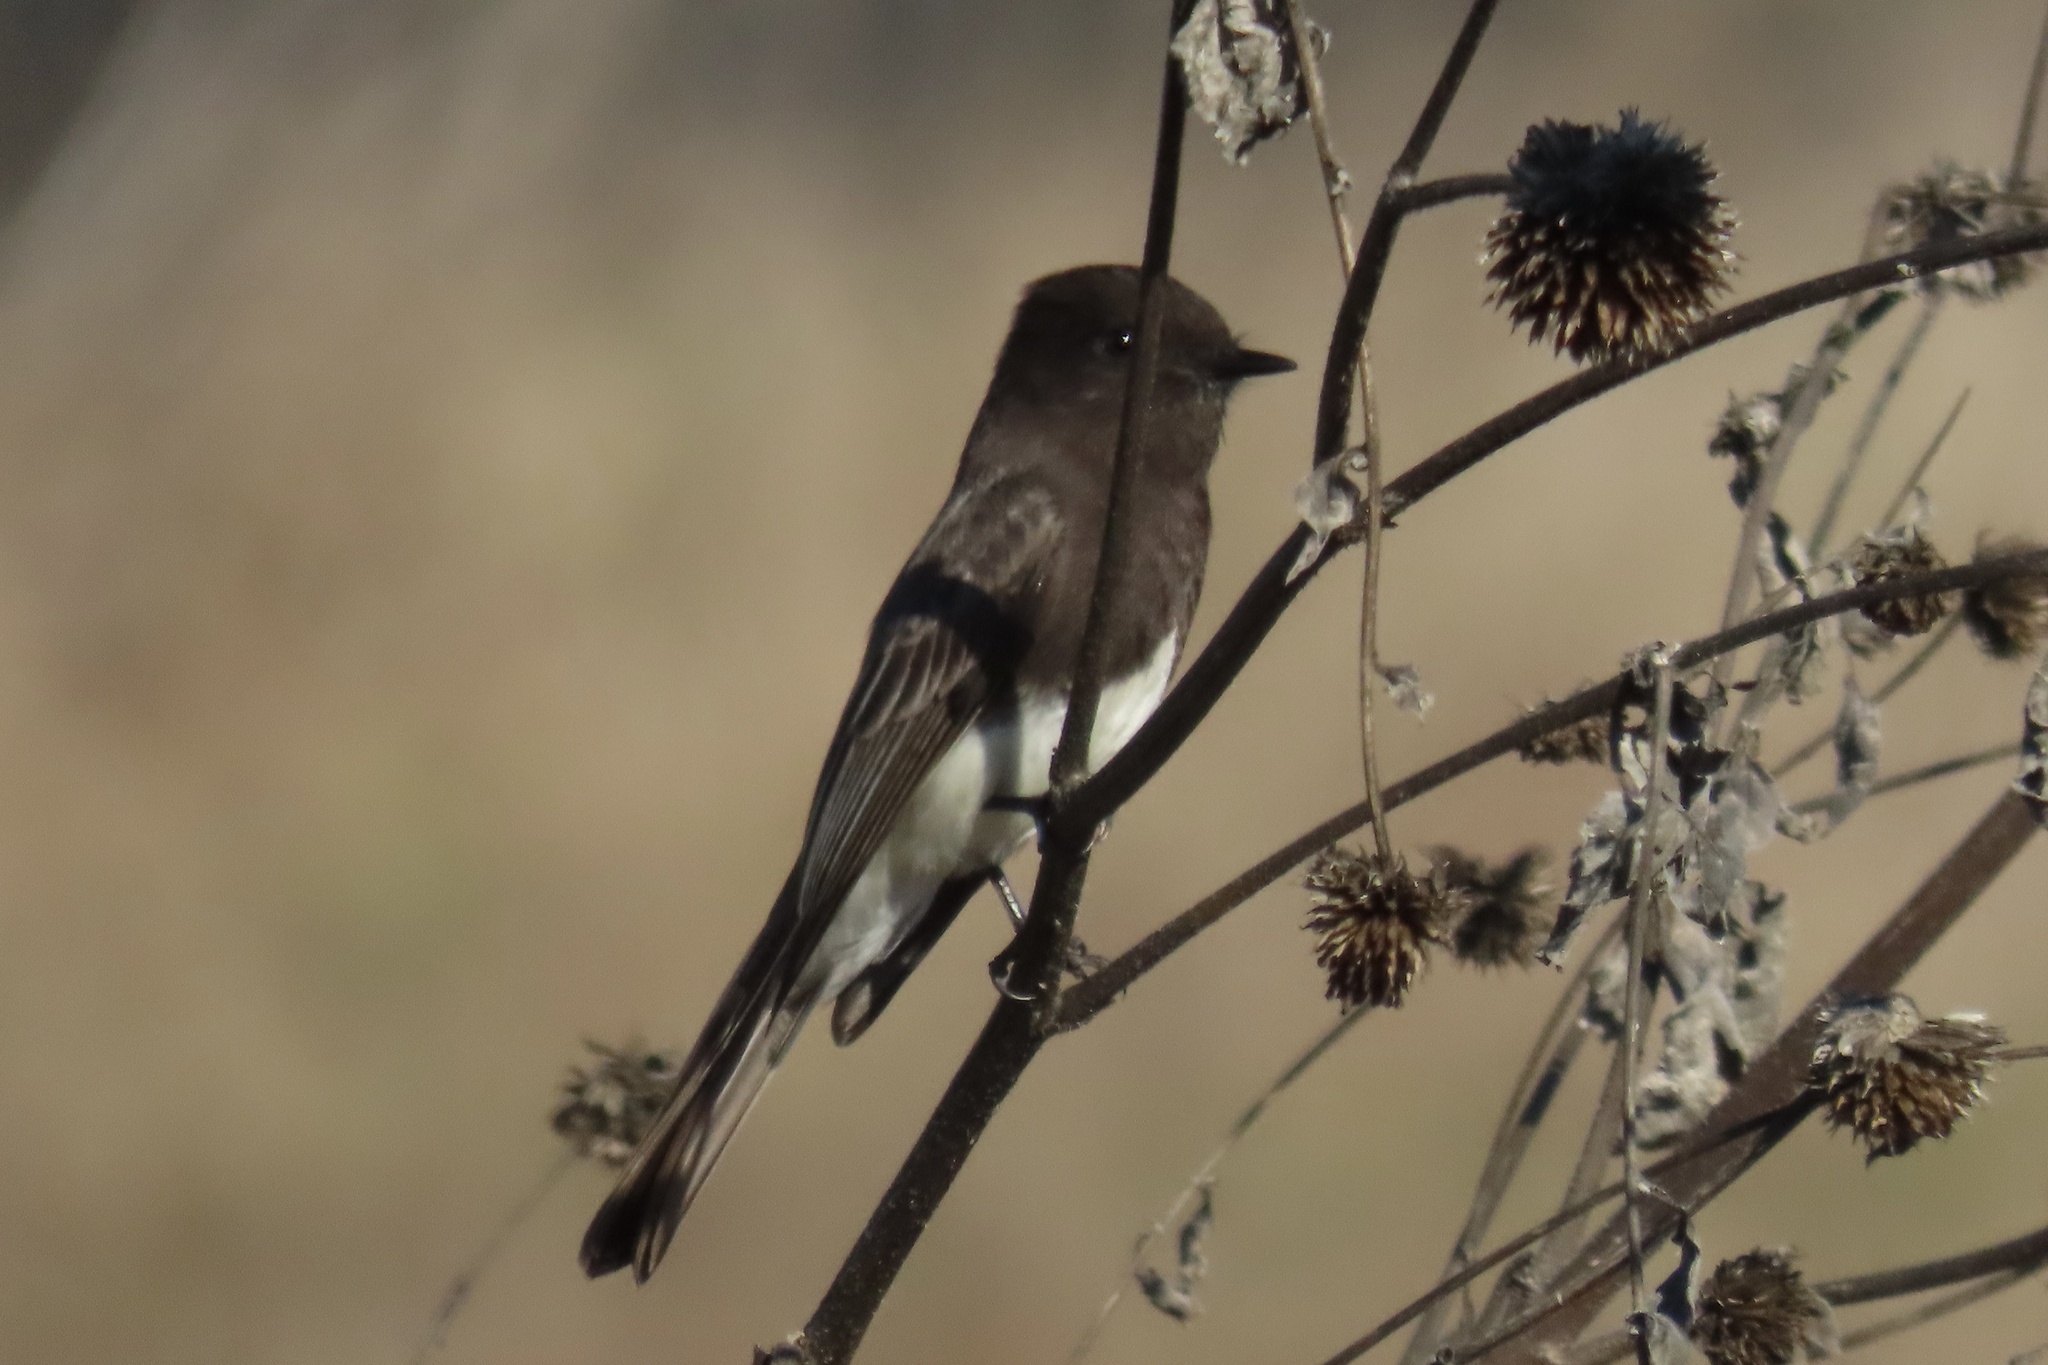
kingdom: Animalia
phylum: Chordata
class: Aves
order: Passeriformes
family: Tyrannidae
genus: Sayornis
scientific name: Sayornis nigricans
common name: Black phoebe
